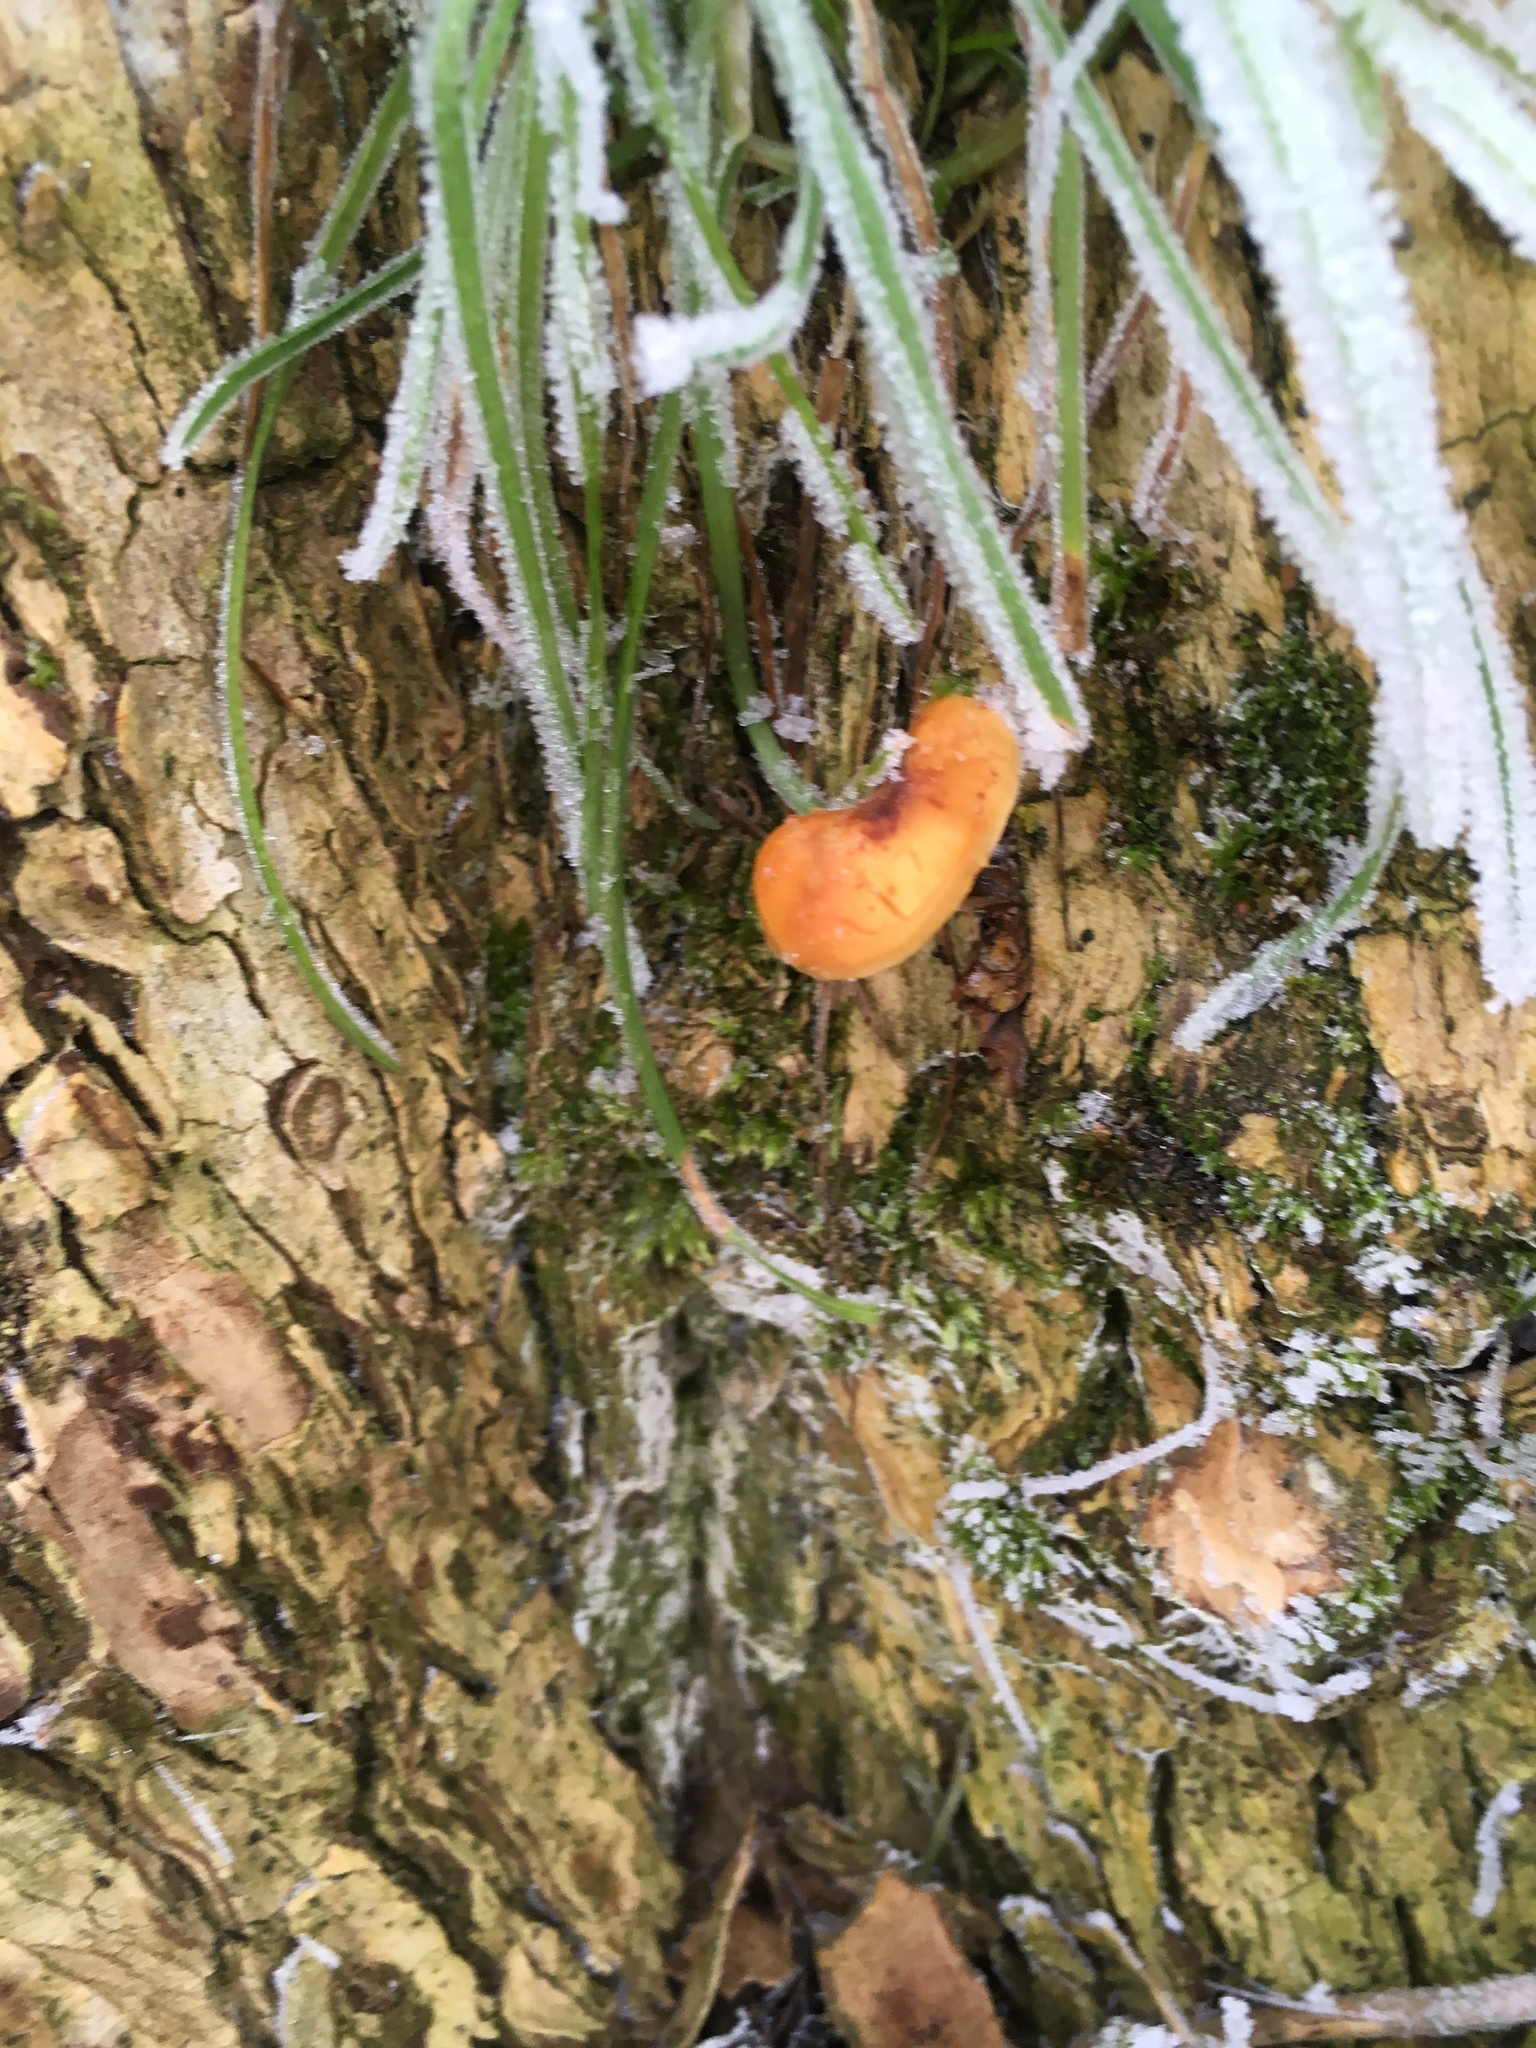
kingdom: Fungi
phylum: Basidiomycota
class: Agaricomycetes
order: Agaricales
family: Physalacriaceae
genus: Flammulina
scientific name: Flammulina
